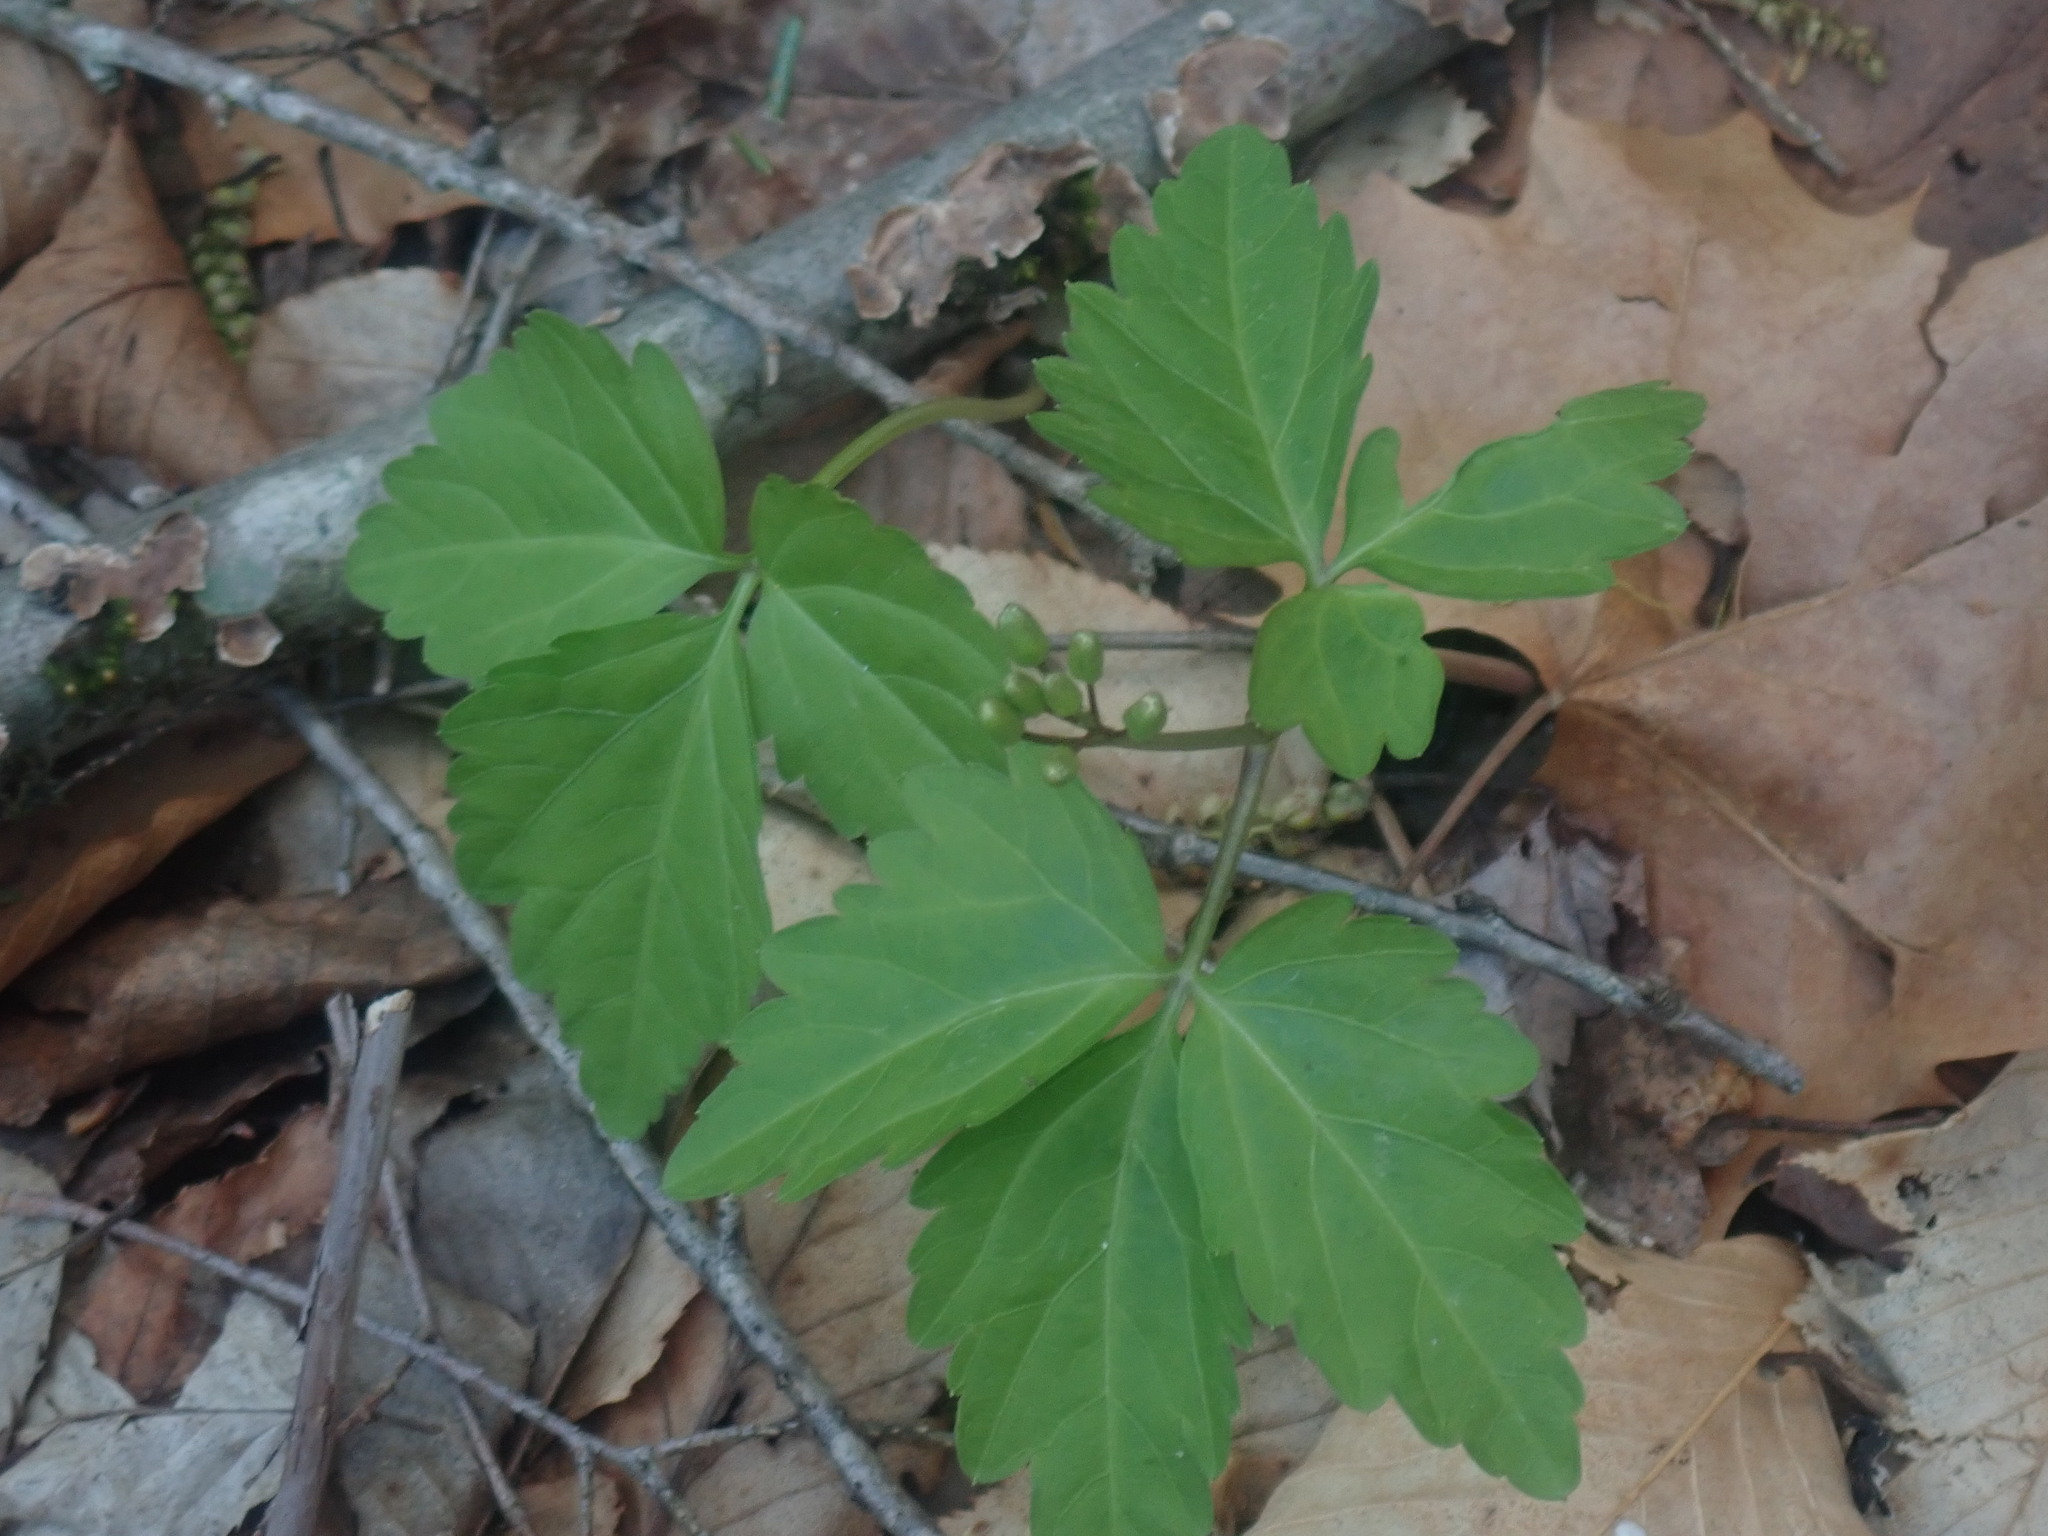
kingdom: Plantae
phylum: Tracheophyta
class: Magnoliopsida
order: Brassicales
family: Brassicaceae
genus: Cardamine
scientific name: Cardamine diphylla
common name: Broad-leaved toothwort
